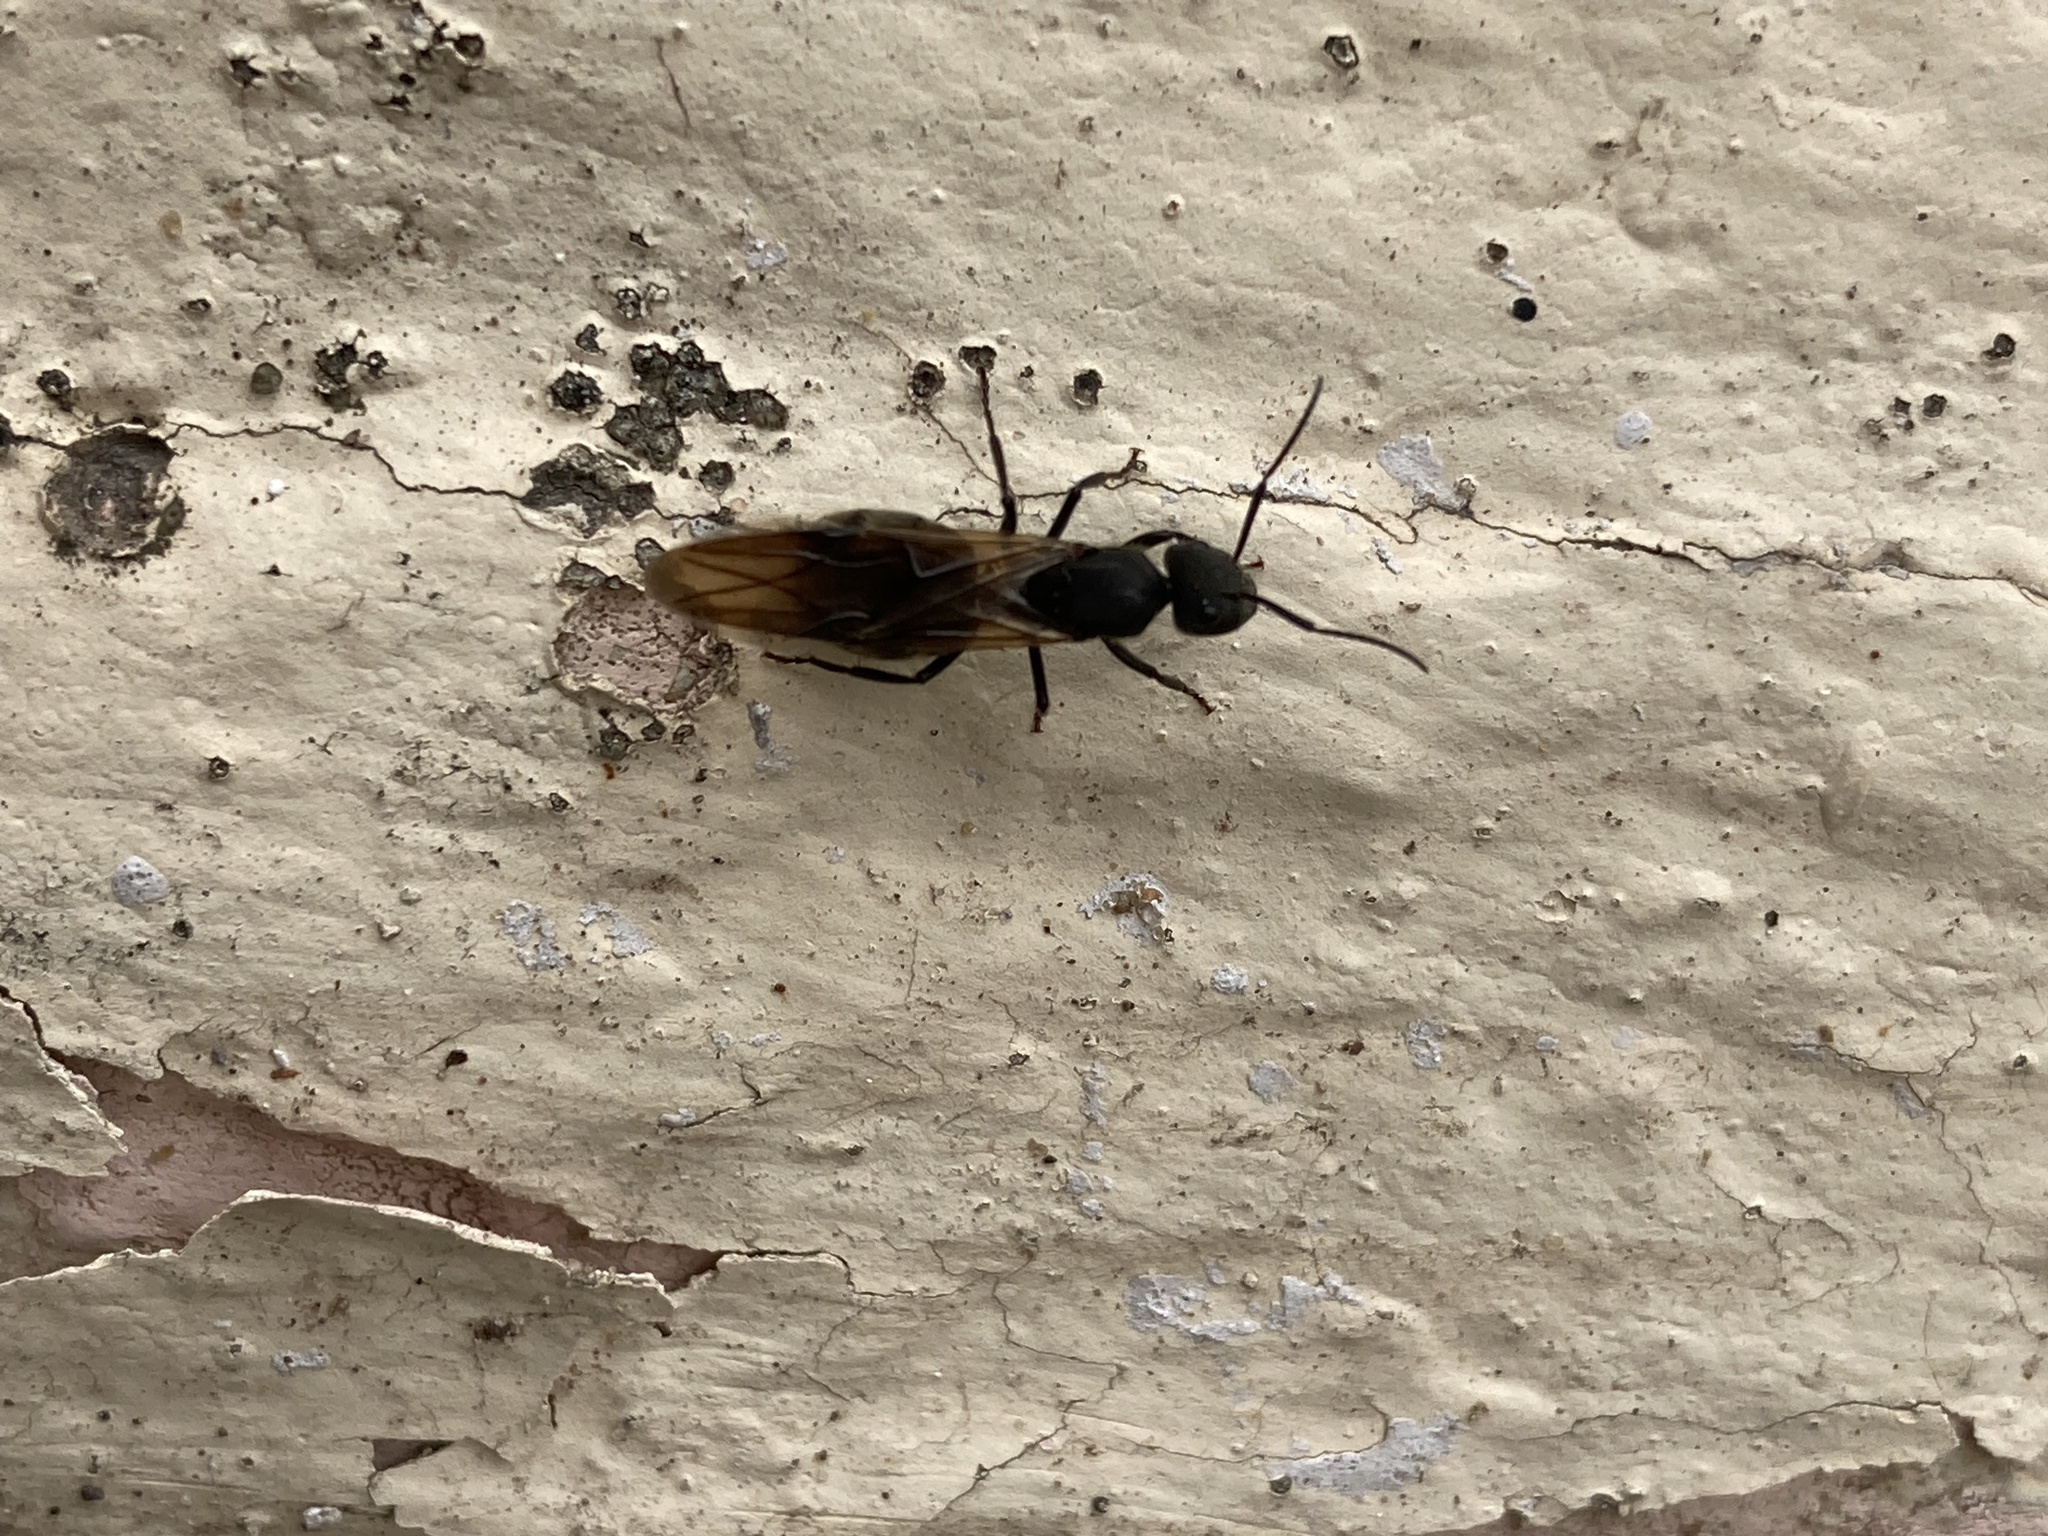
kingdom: Animalia
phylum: Arthropoda
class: Insecta
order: Hymenoptera
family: Formicidae
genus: Camponotus
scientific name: Camponotus mus
